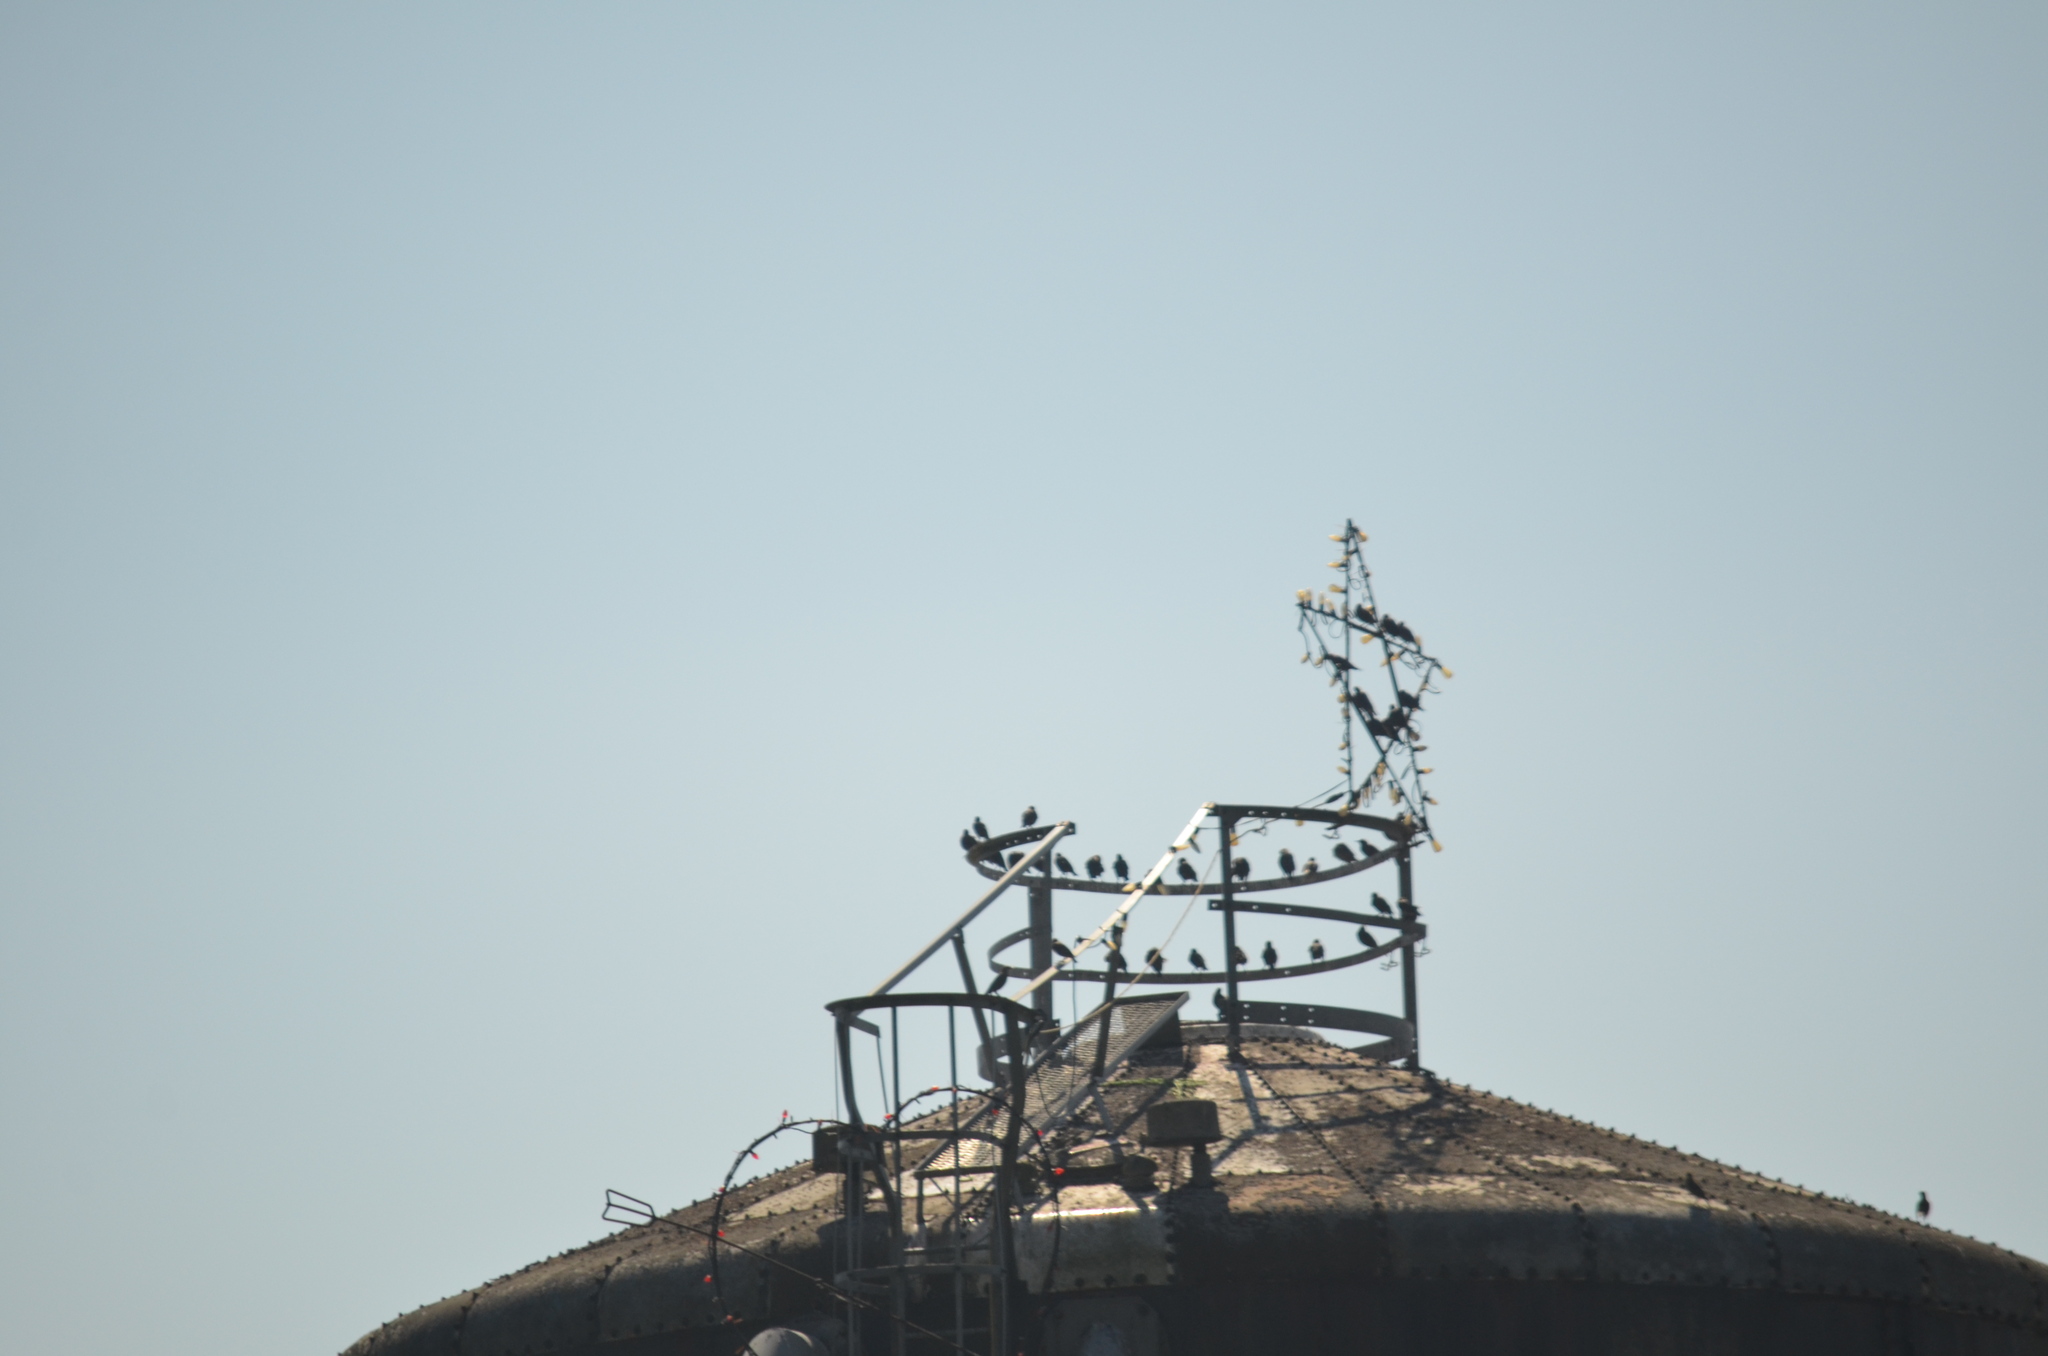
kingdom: Animalia
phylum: Chordata
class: Aves
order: Passeriformes
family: Sturnidae
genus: Sturnus
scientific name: Sturnus vulgaris
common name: Common starling
